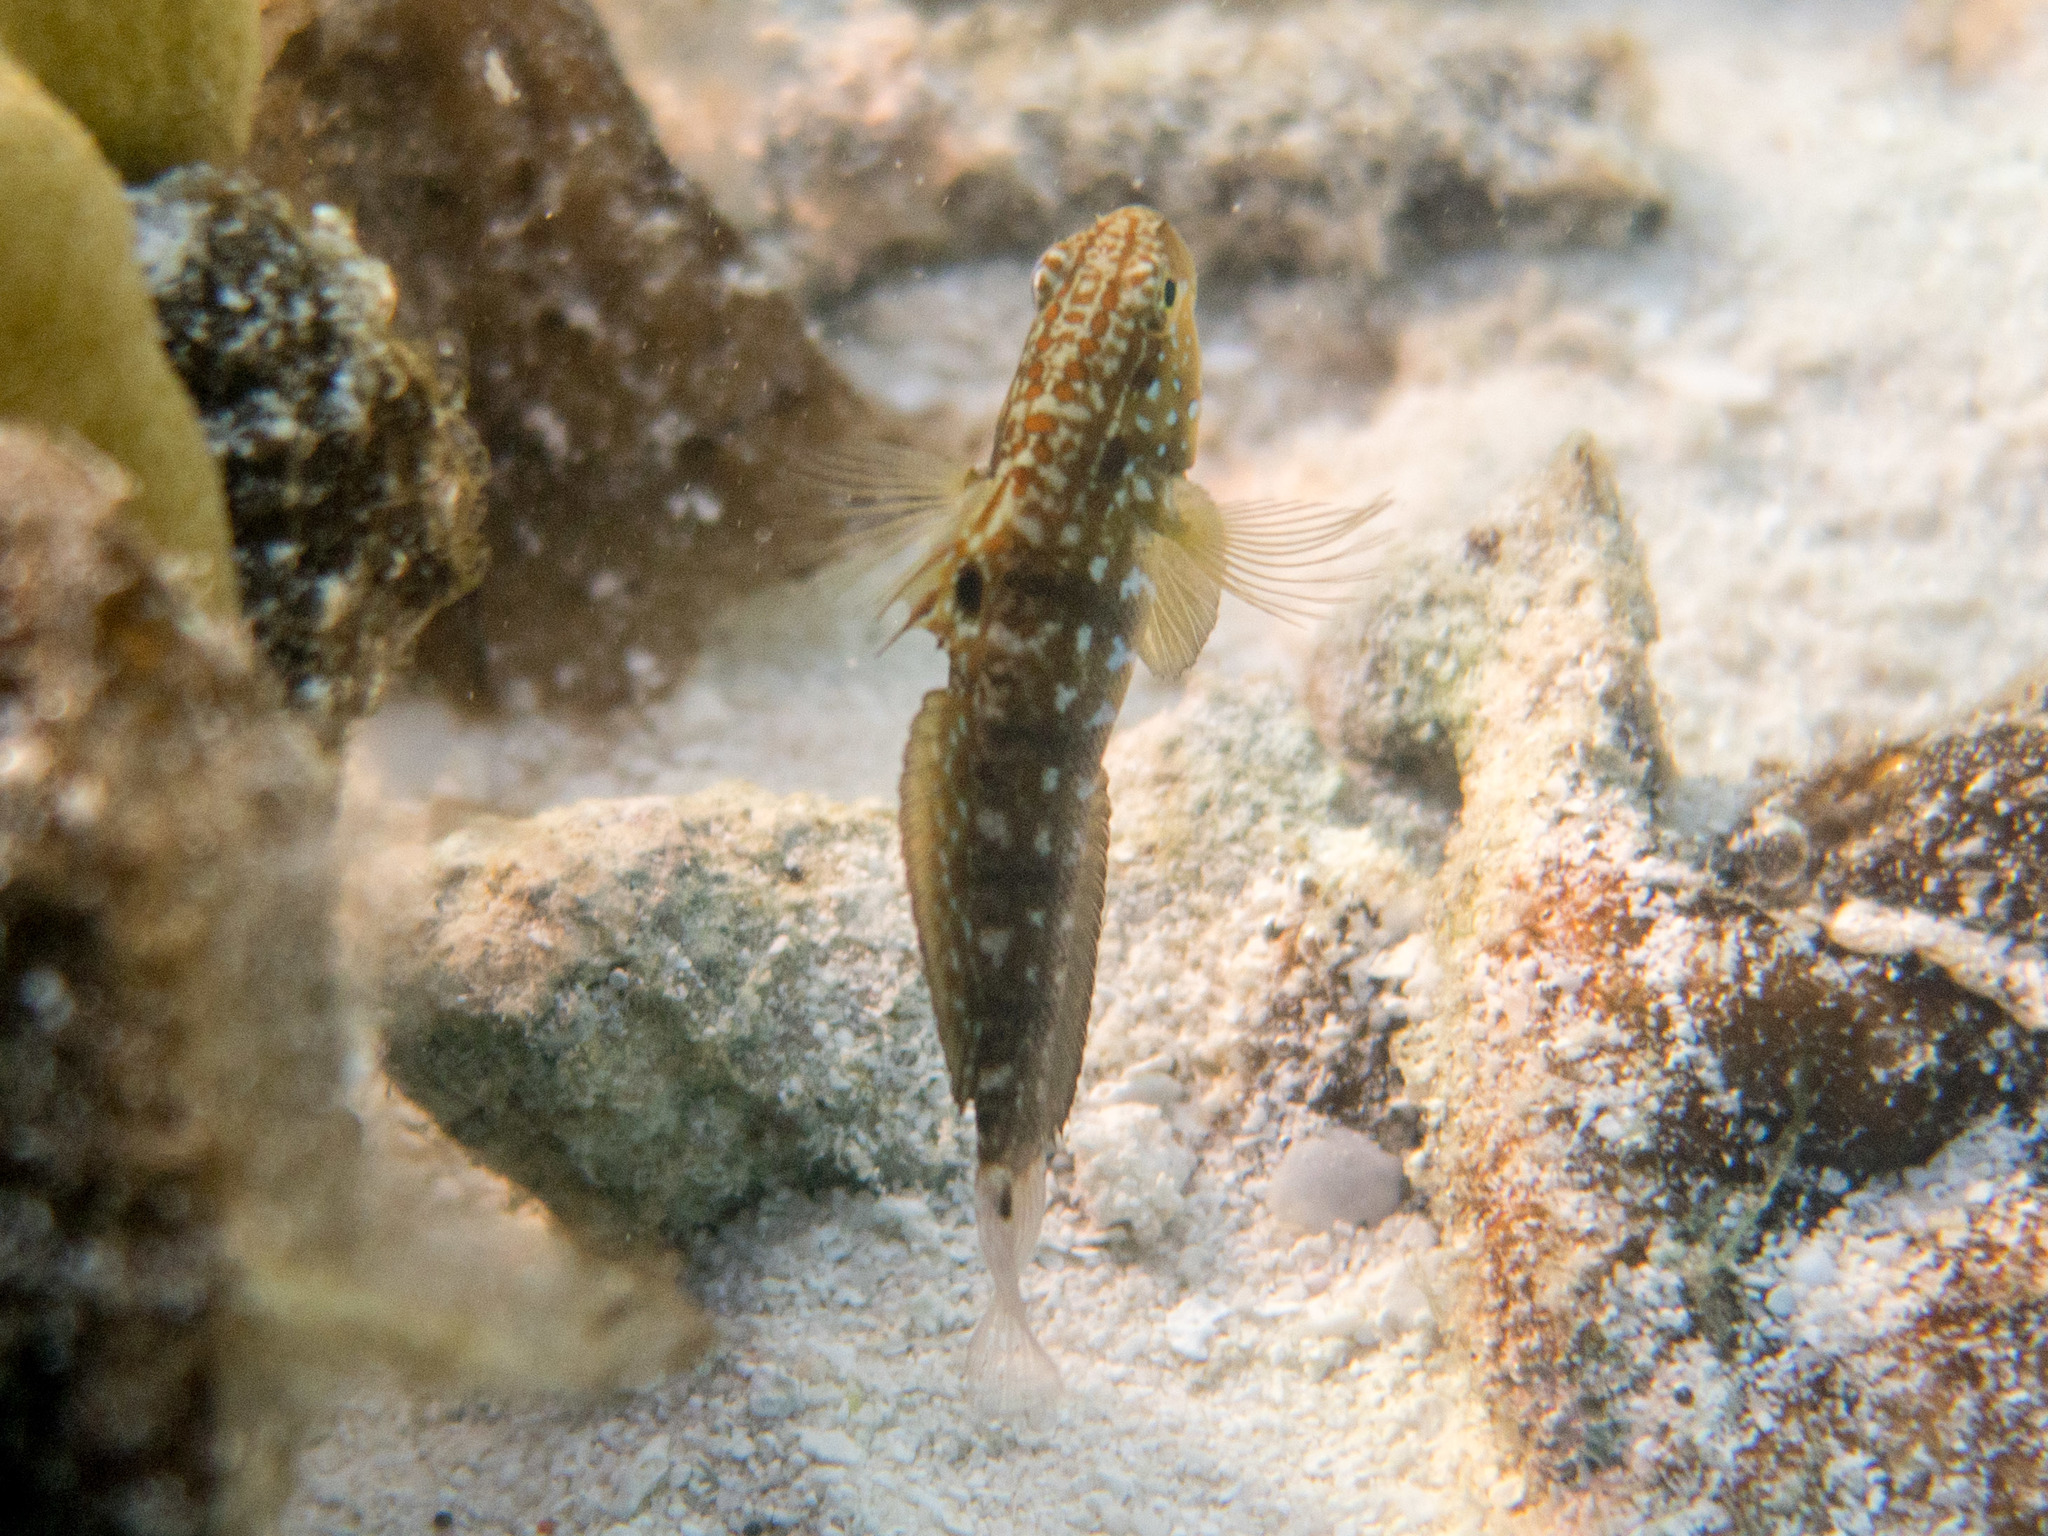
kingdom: Animalia
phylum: Chordata
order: Perciformes
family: Gobiidae
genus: Amblygobius
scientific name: Amblygobius semicinctus
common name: Halfbarred goby
